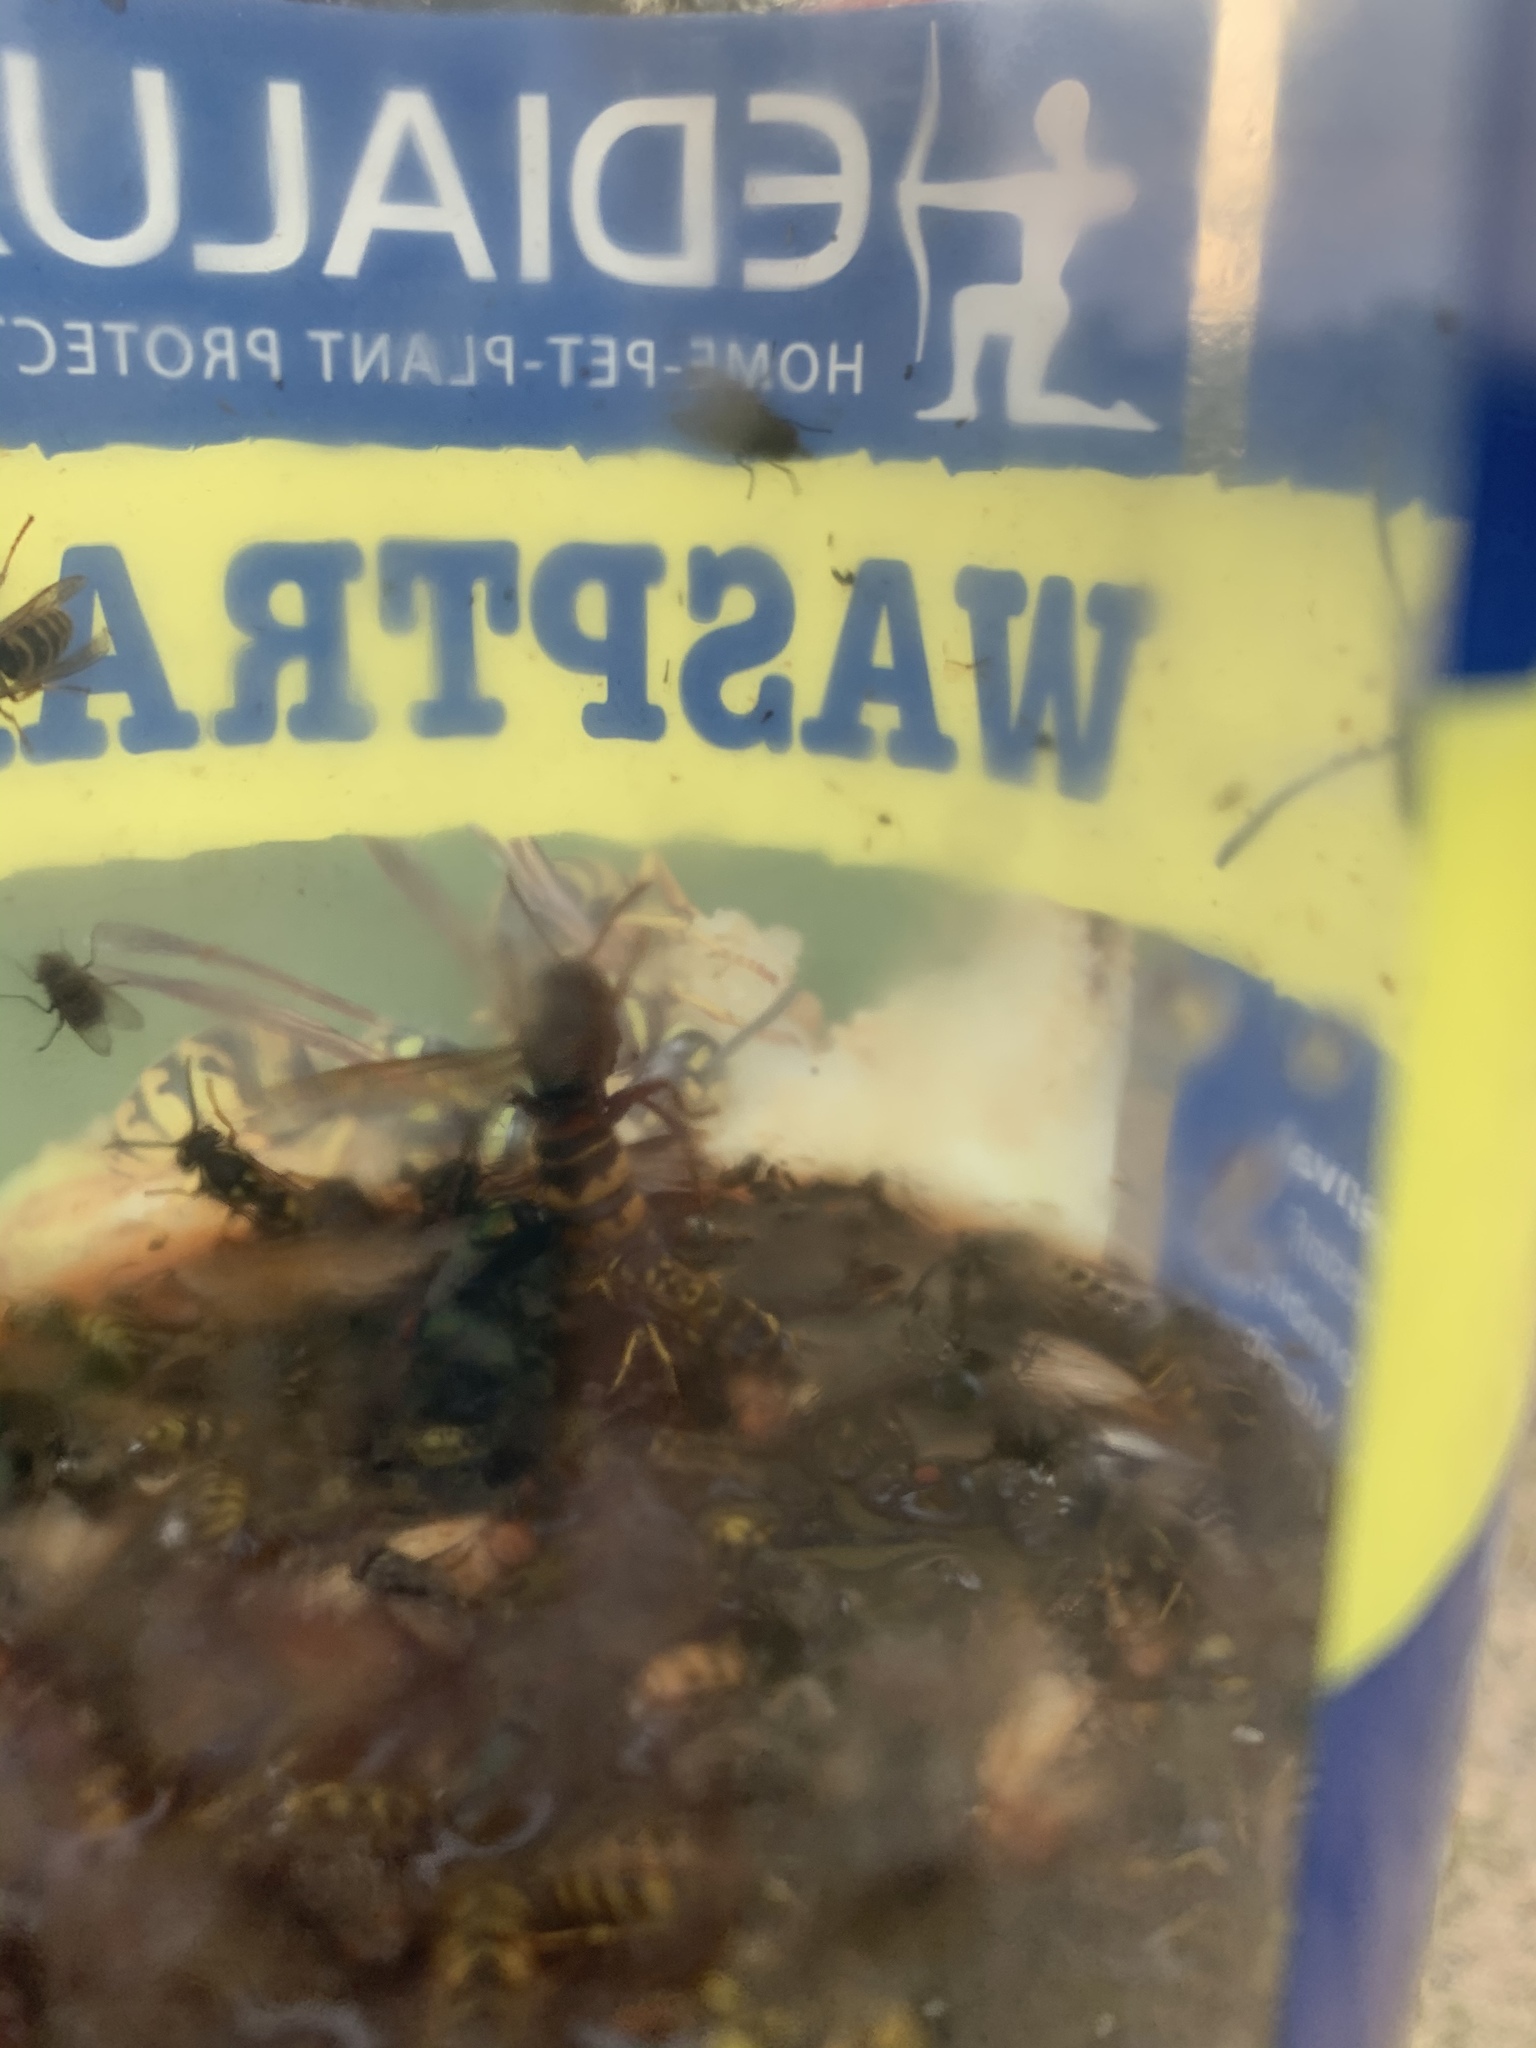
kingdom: Animalia
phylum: Arthropoda
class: Insecta
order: Hymenoptera
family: Vespidae
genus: Vespa
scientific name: Vespa crabro
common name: Hornet
